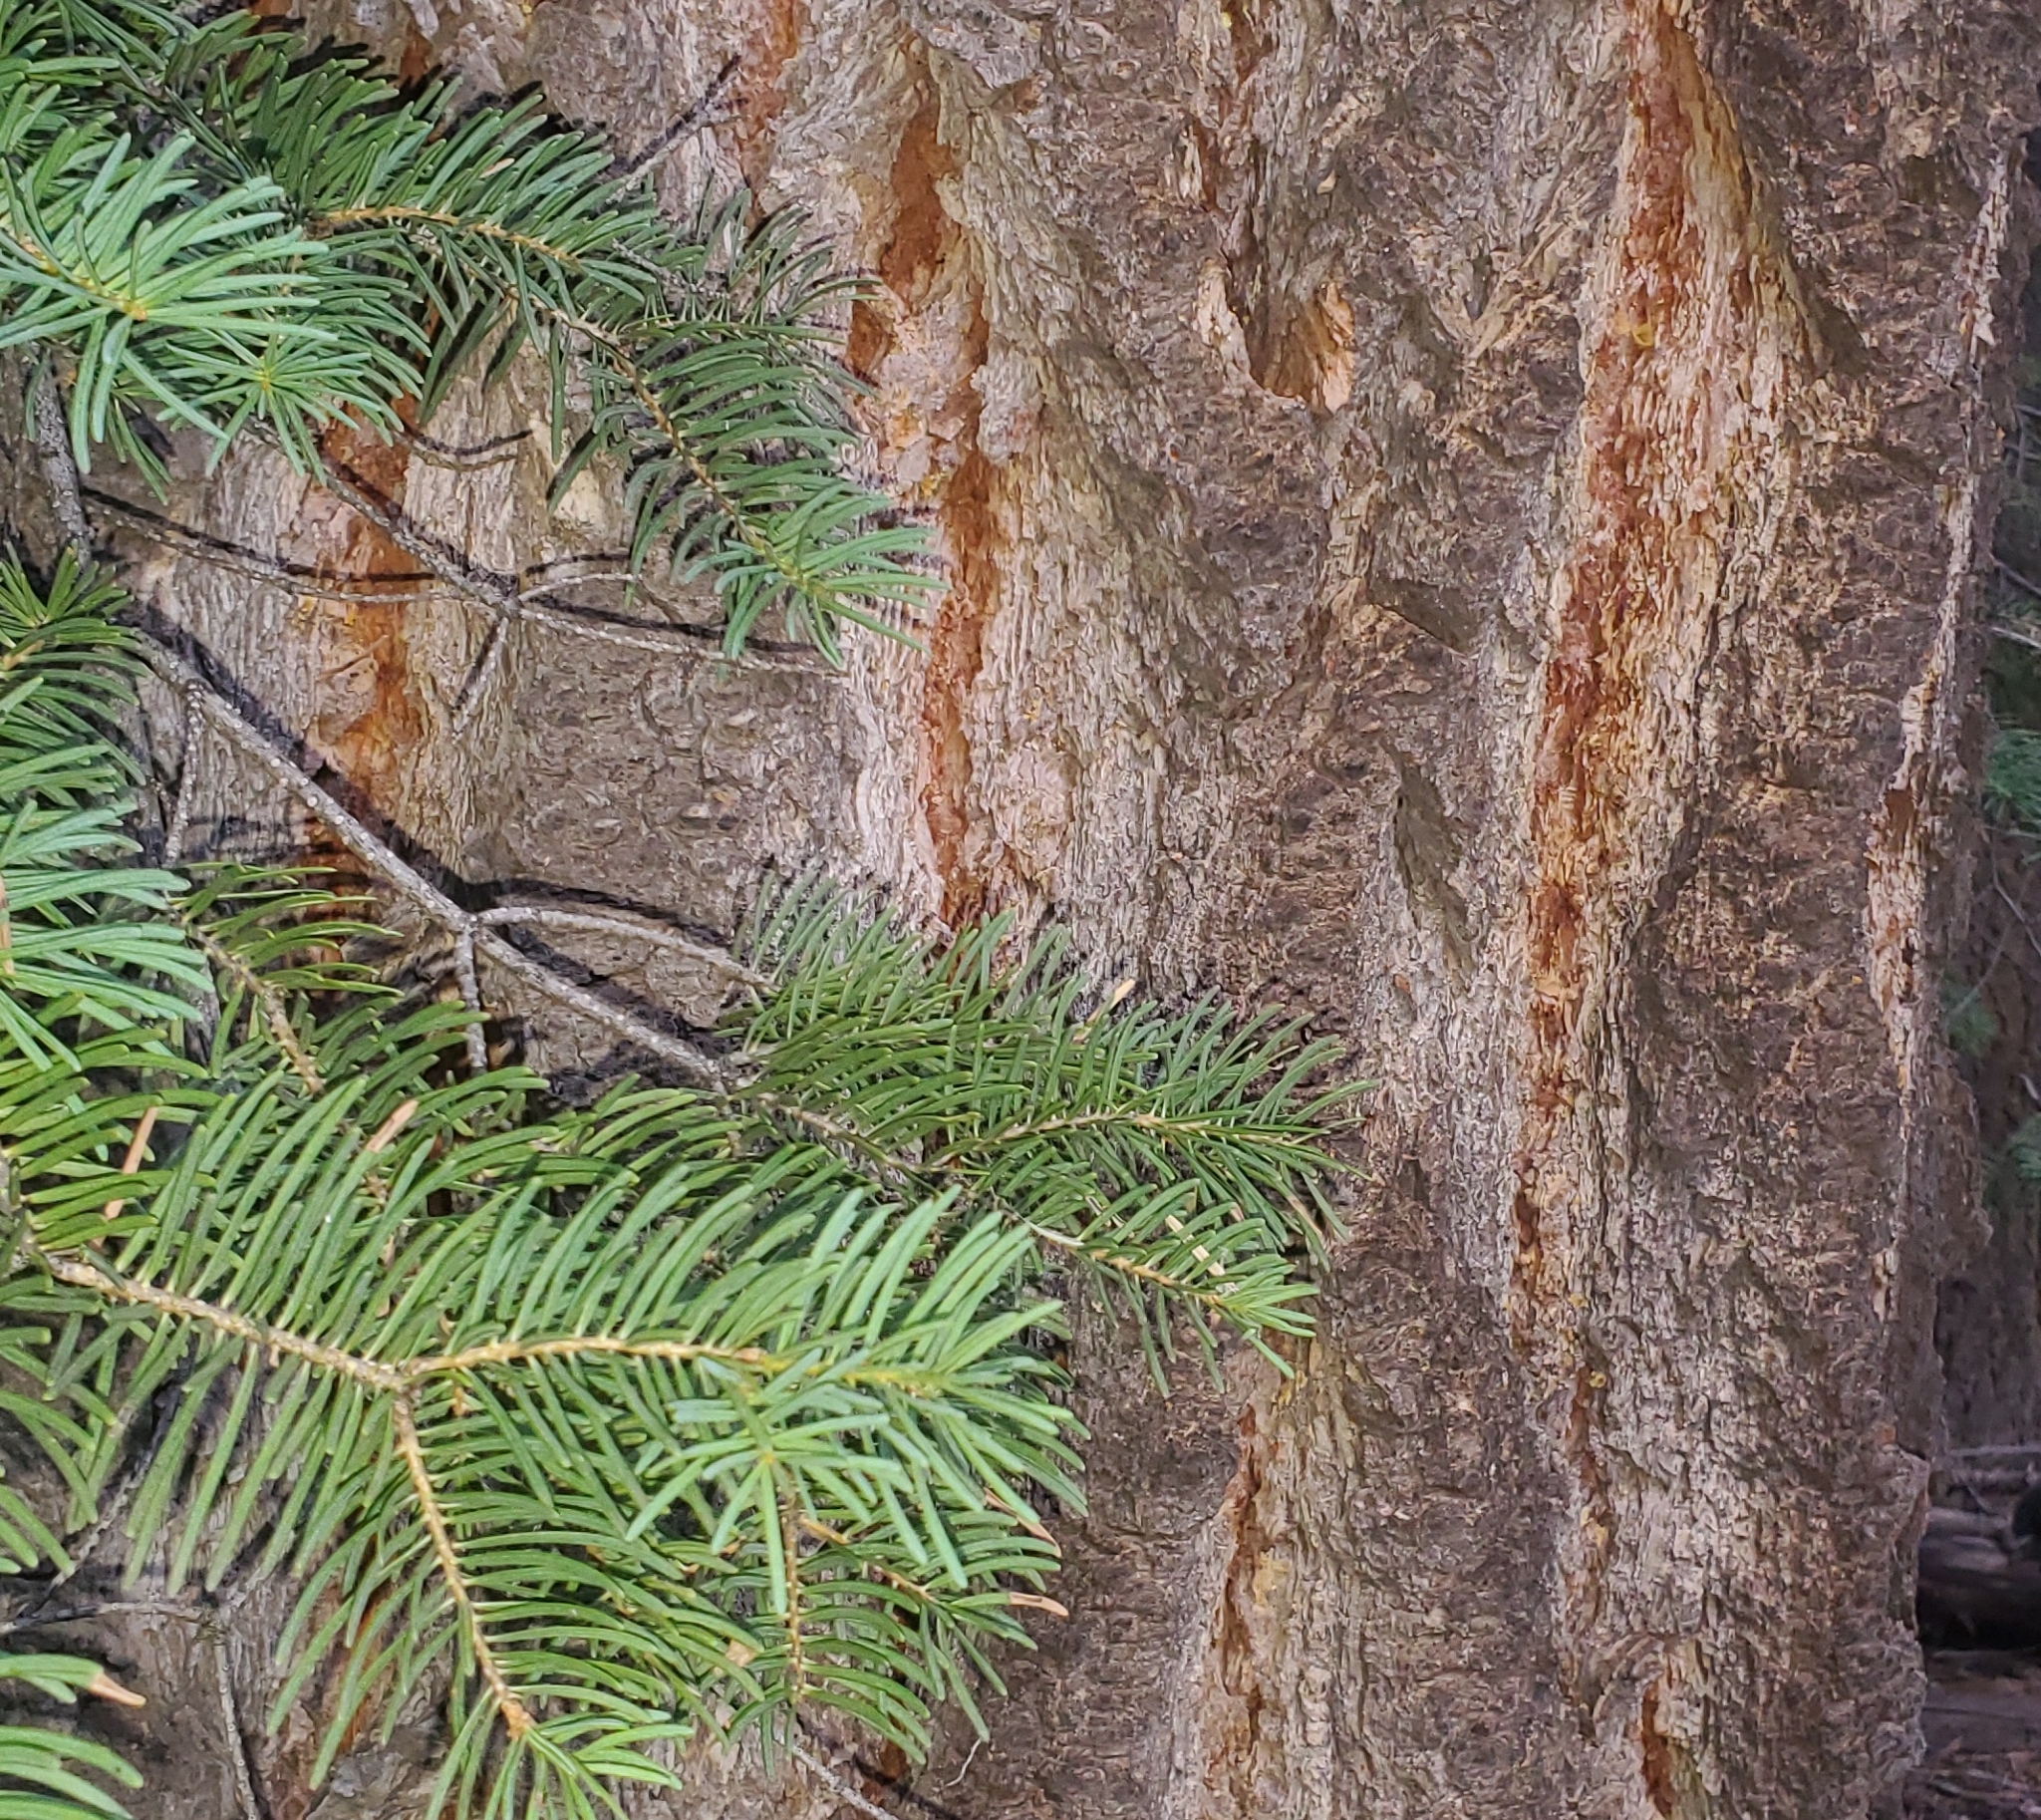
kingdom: Plantae
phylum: Tracheophyta
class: Pinopsida
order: Pinales
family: Pinaceae
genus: Abies
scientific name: Abies concolor
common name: Colorado fir
